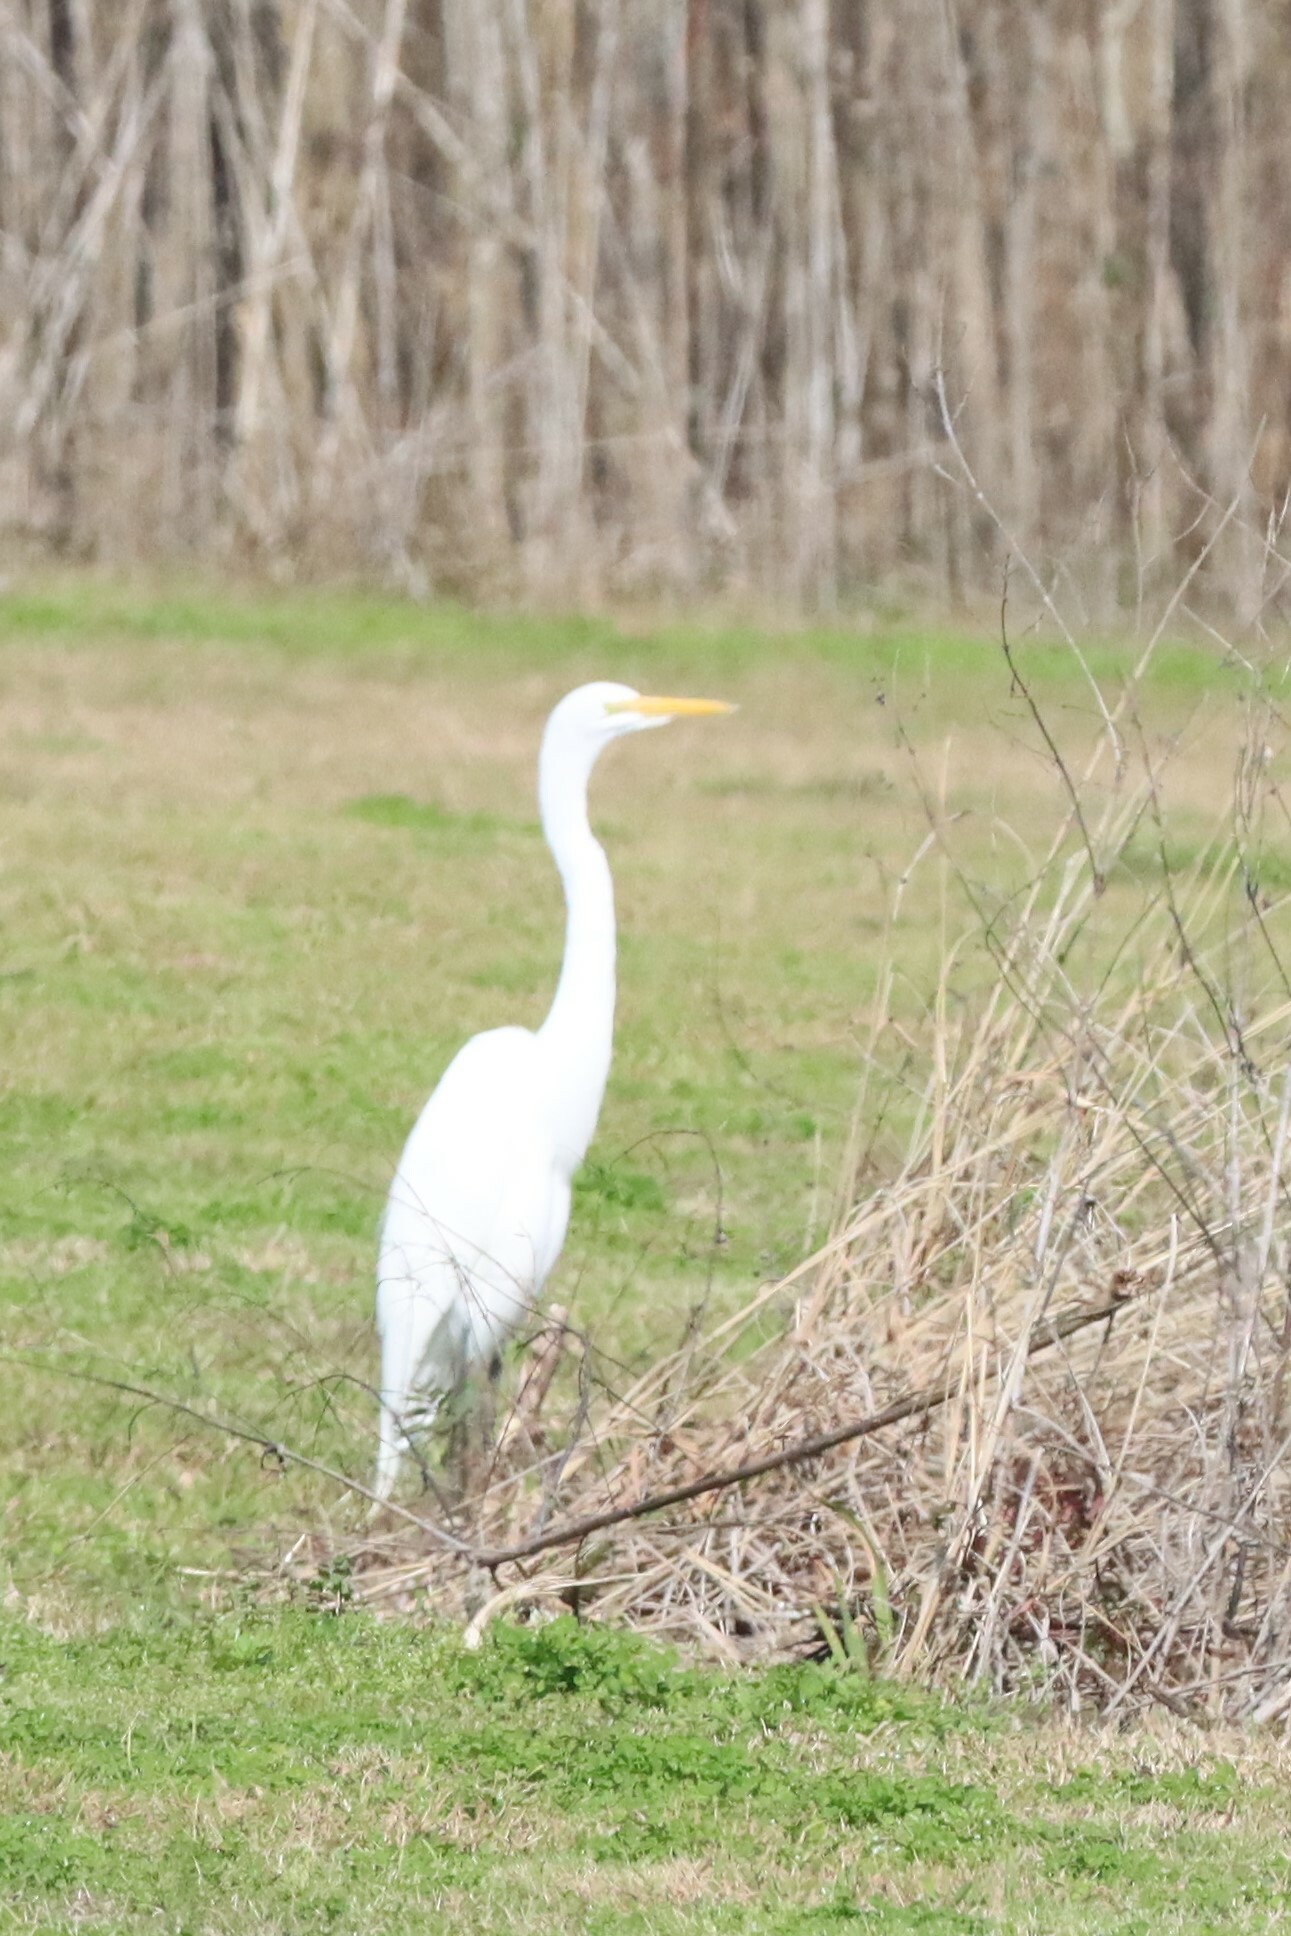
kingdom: Animalia
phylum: Chordata
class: Aves
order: Pelecaniformes
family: Ardeidae
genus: Ardea
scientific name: Ardea alba
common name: Great egret
